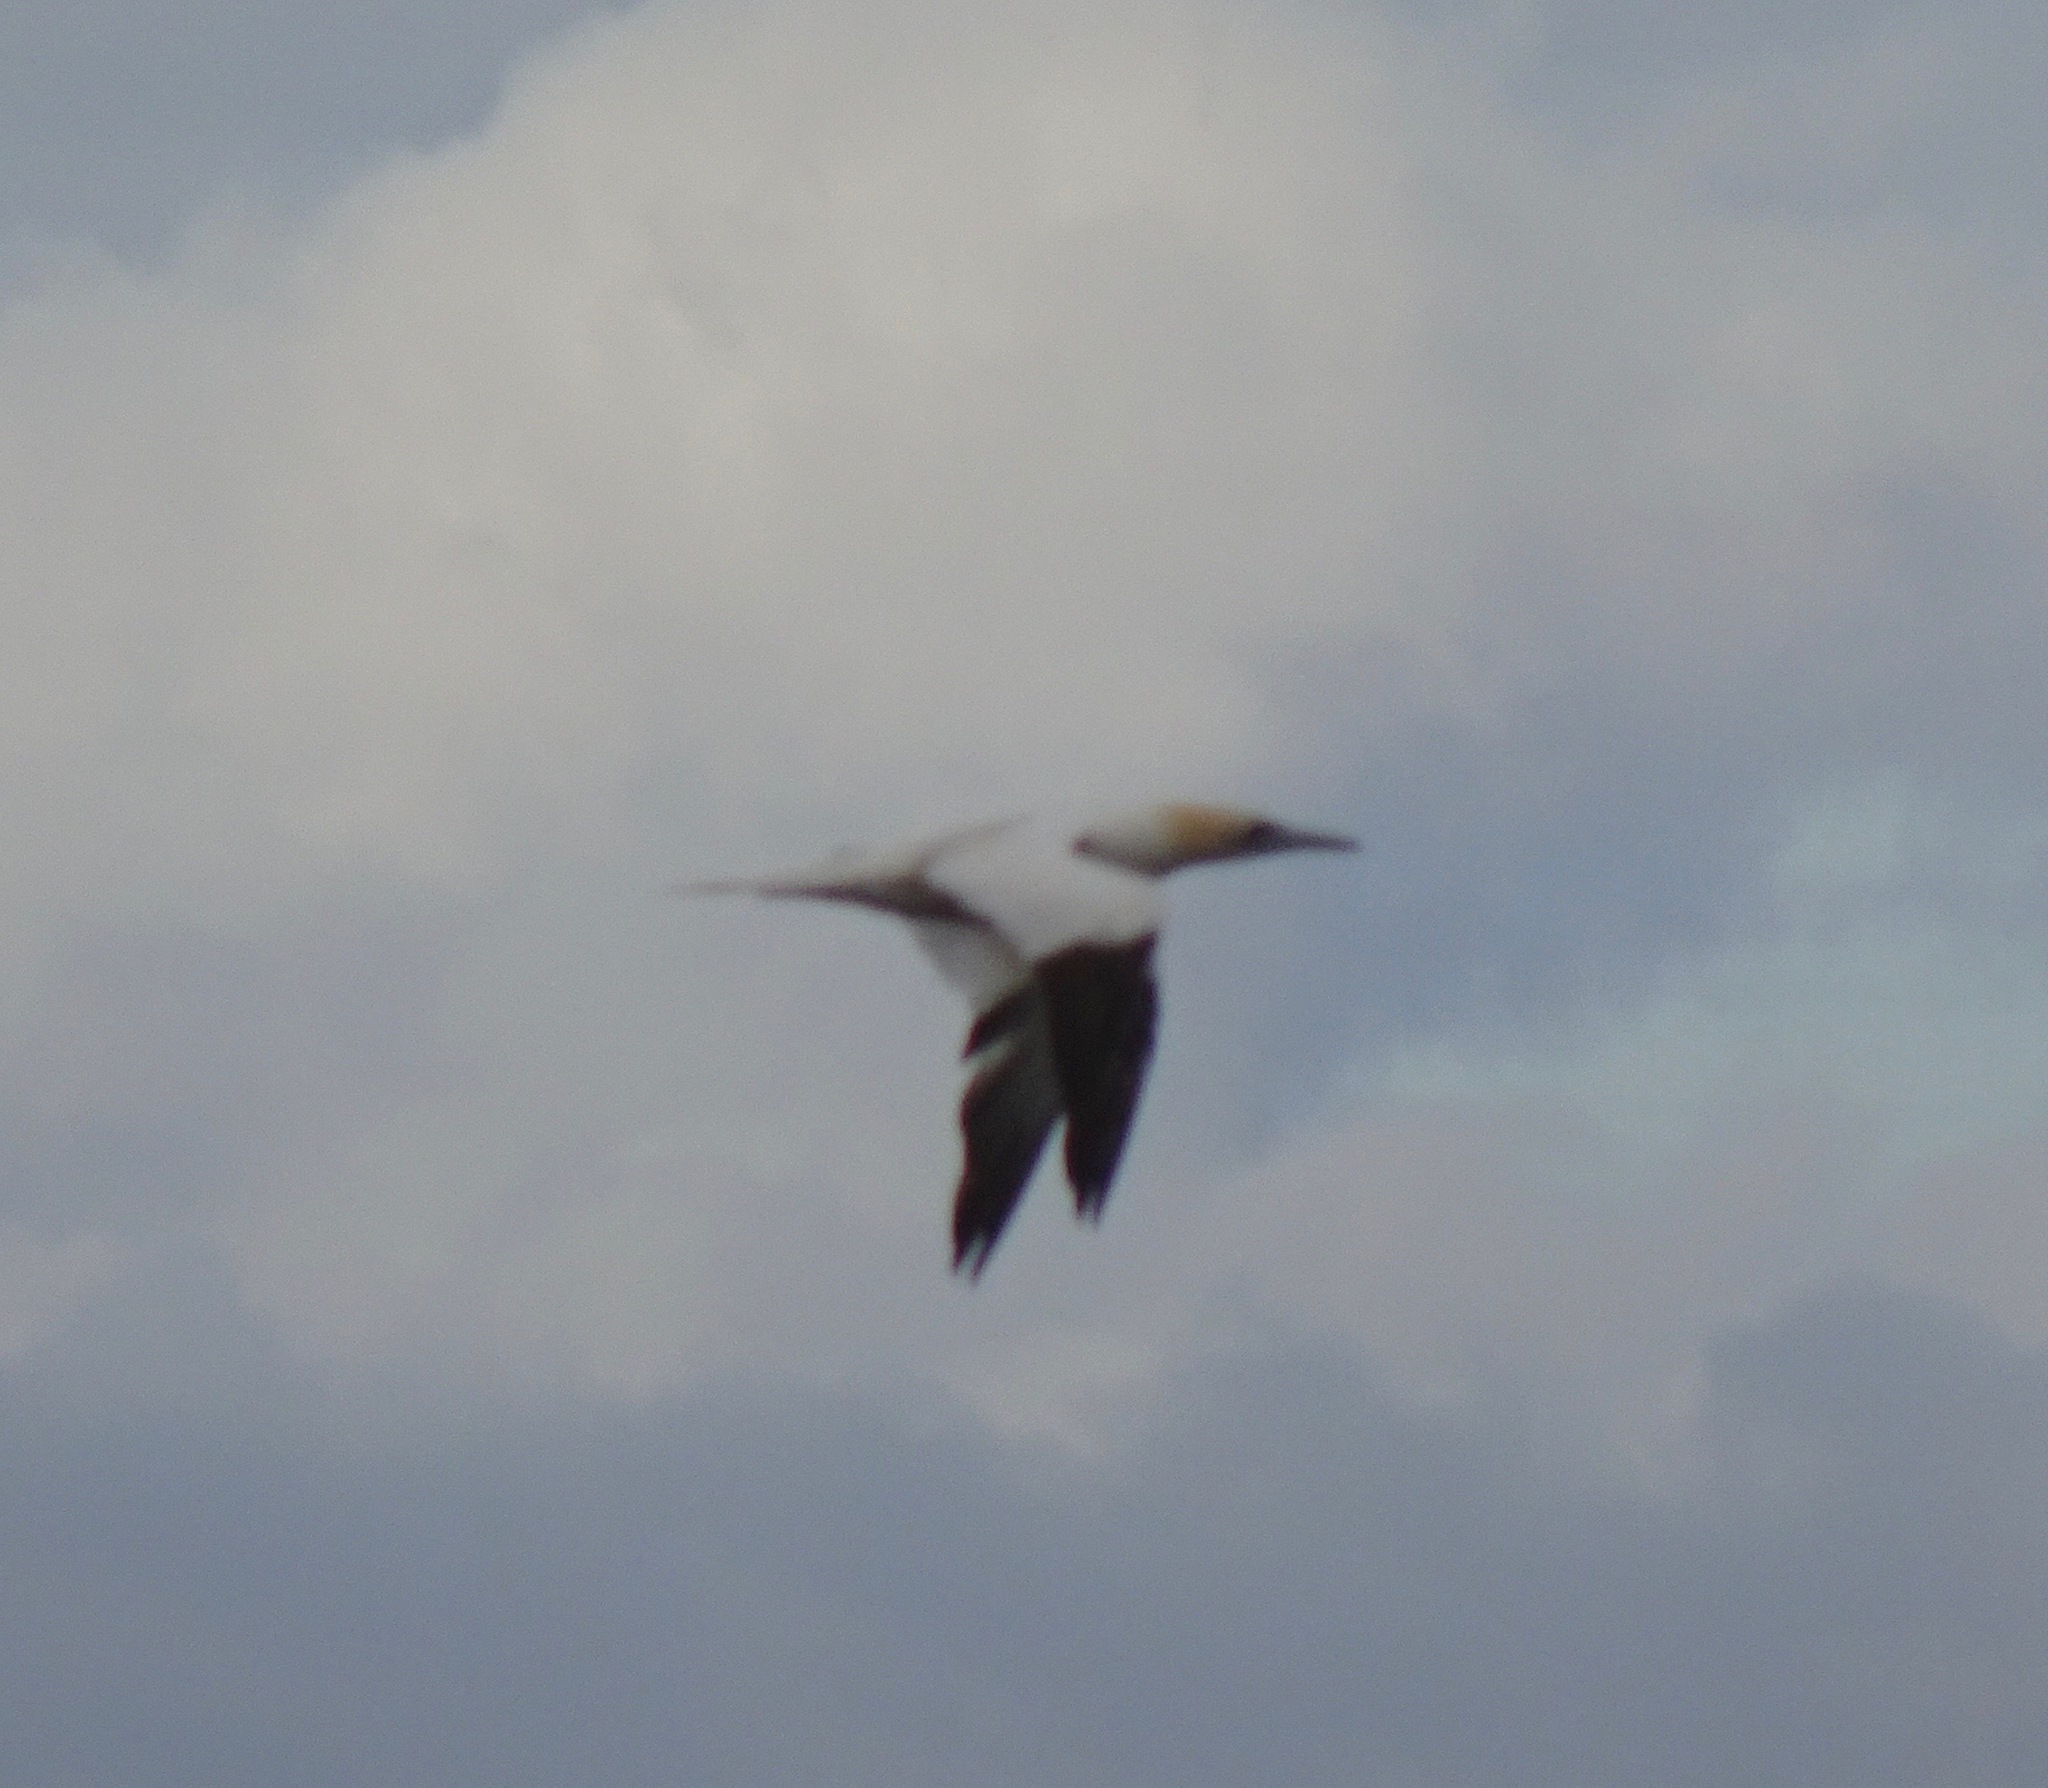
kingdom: Animalia
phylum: Chordata
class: Aves
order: Suliformes
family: Sulidae
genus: Morus
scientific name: Morus bassanus
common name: Northern gannet
